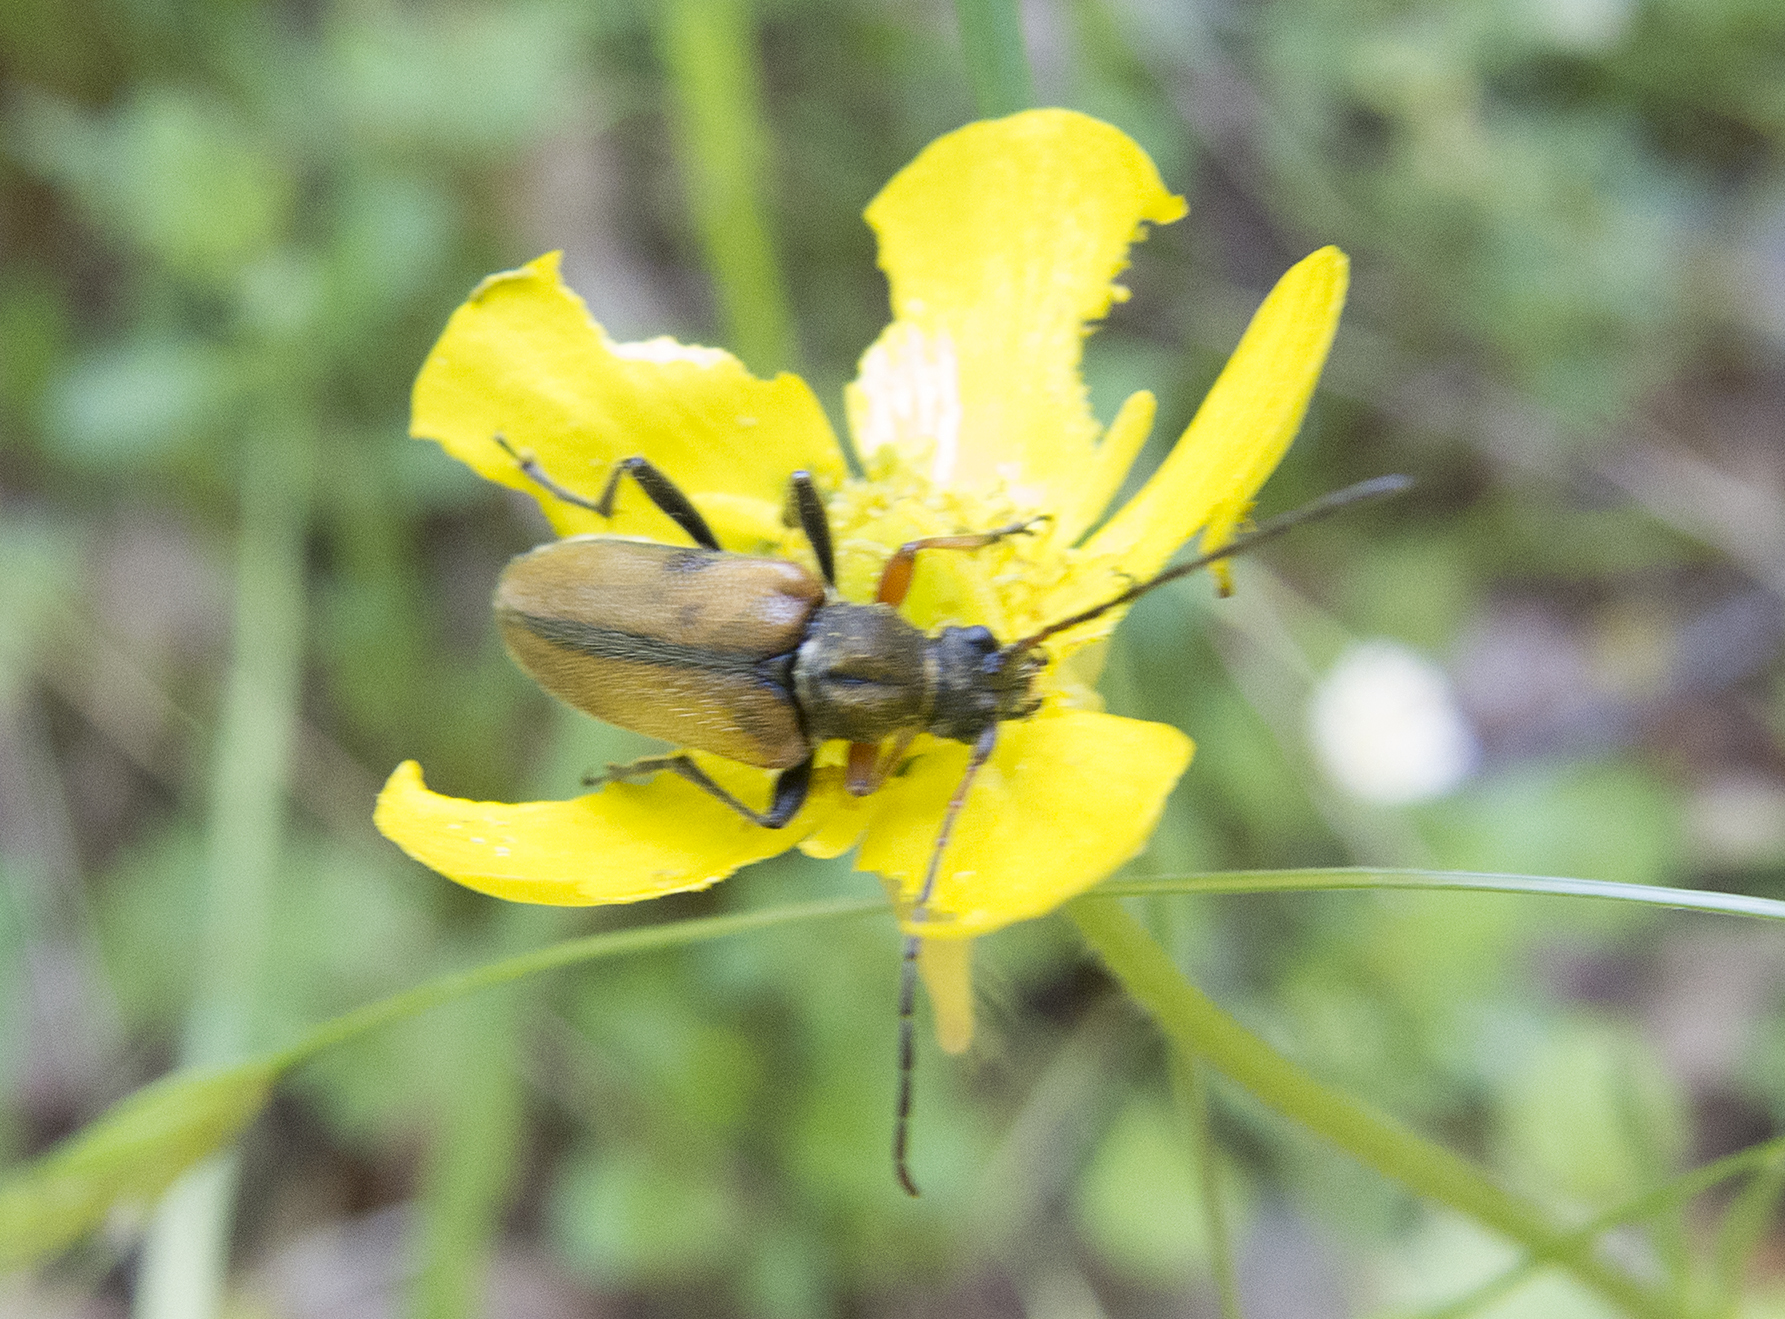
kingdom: Animalia
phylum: Arthropoda
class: Insecta
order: Coleoptera
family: Cerambycidae
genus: Cortodera
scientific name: Cortodera flavimana
